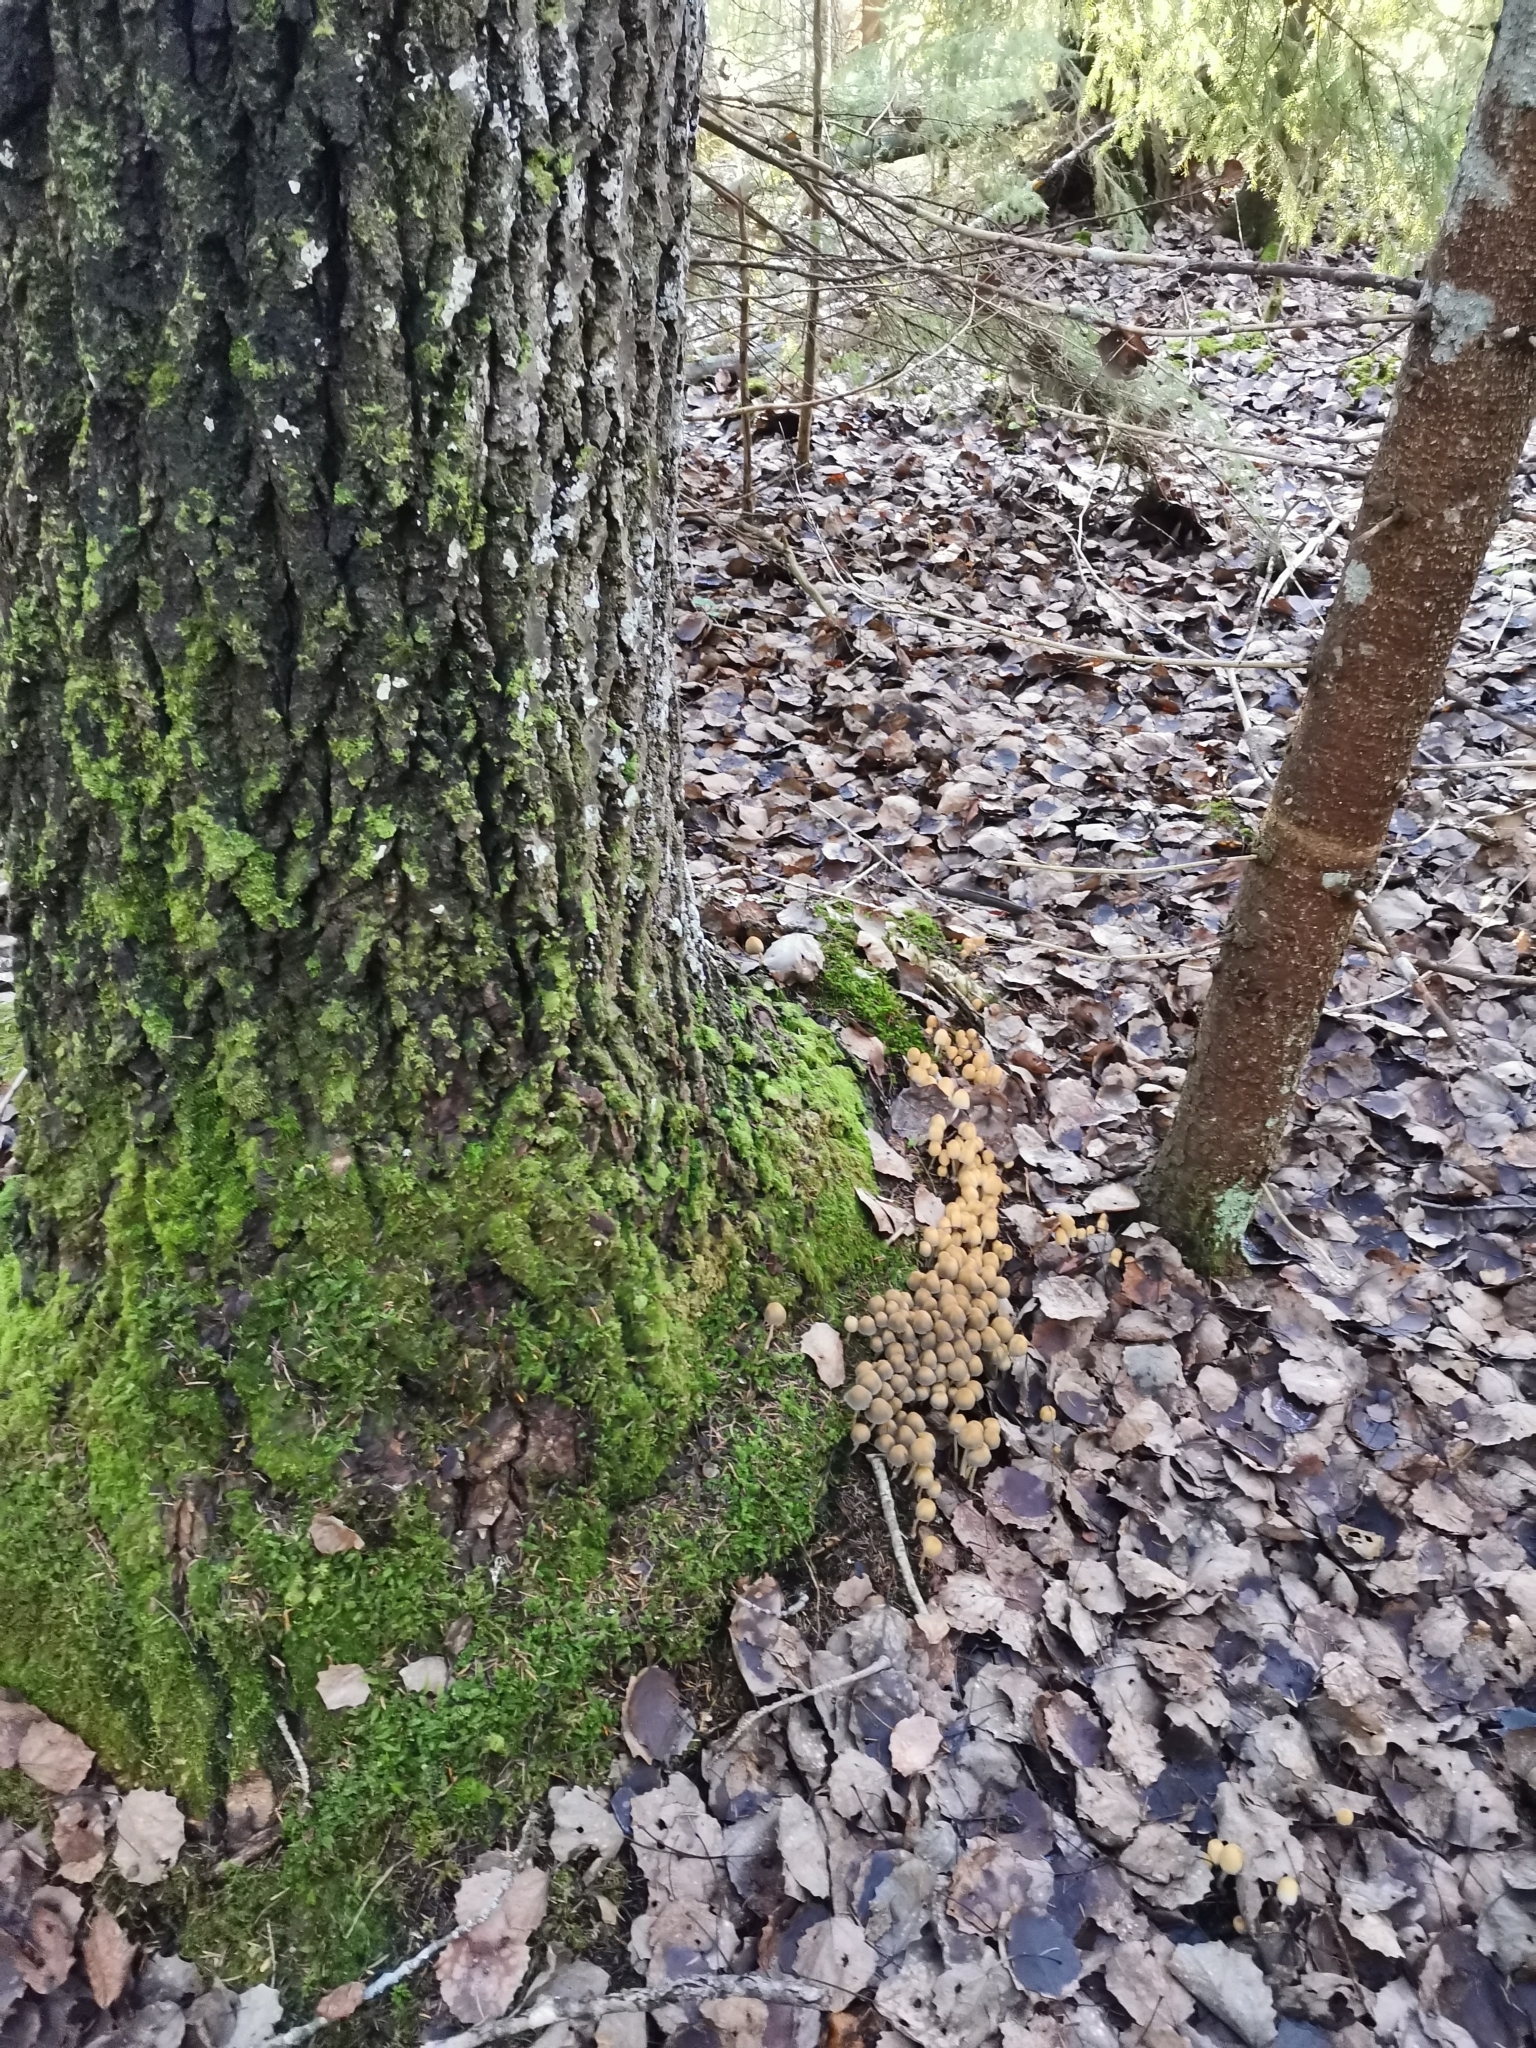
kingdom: Fungi
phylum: Basidiomycota
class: Agaricomycetes
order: Agaricales
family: Psathyrellaceae
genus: Coprinellus
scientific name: Coprinellus micaceus
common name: Glistening ink-cap
